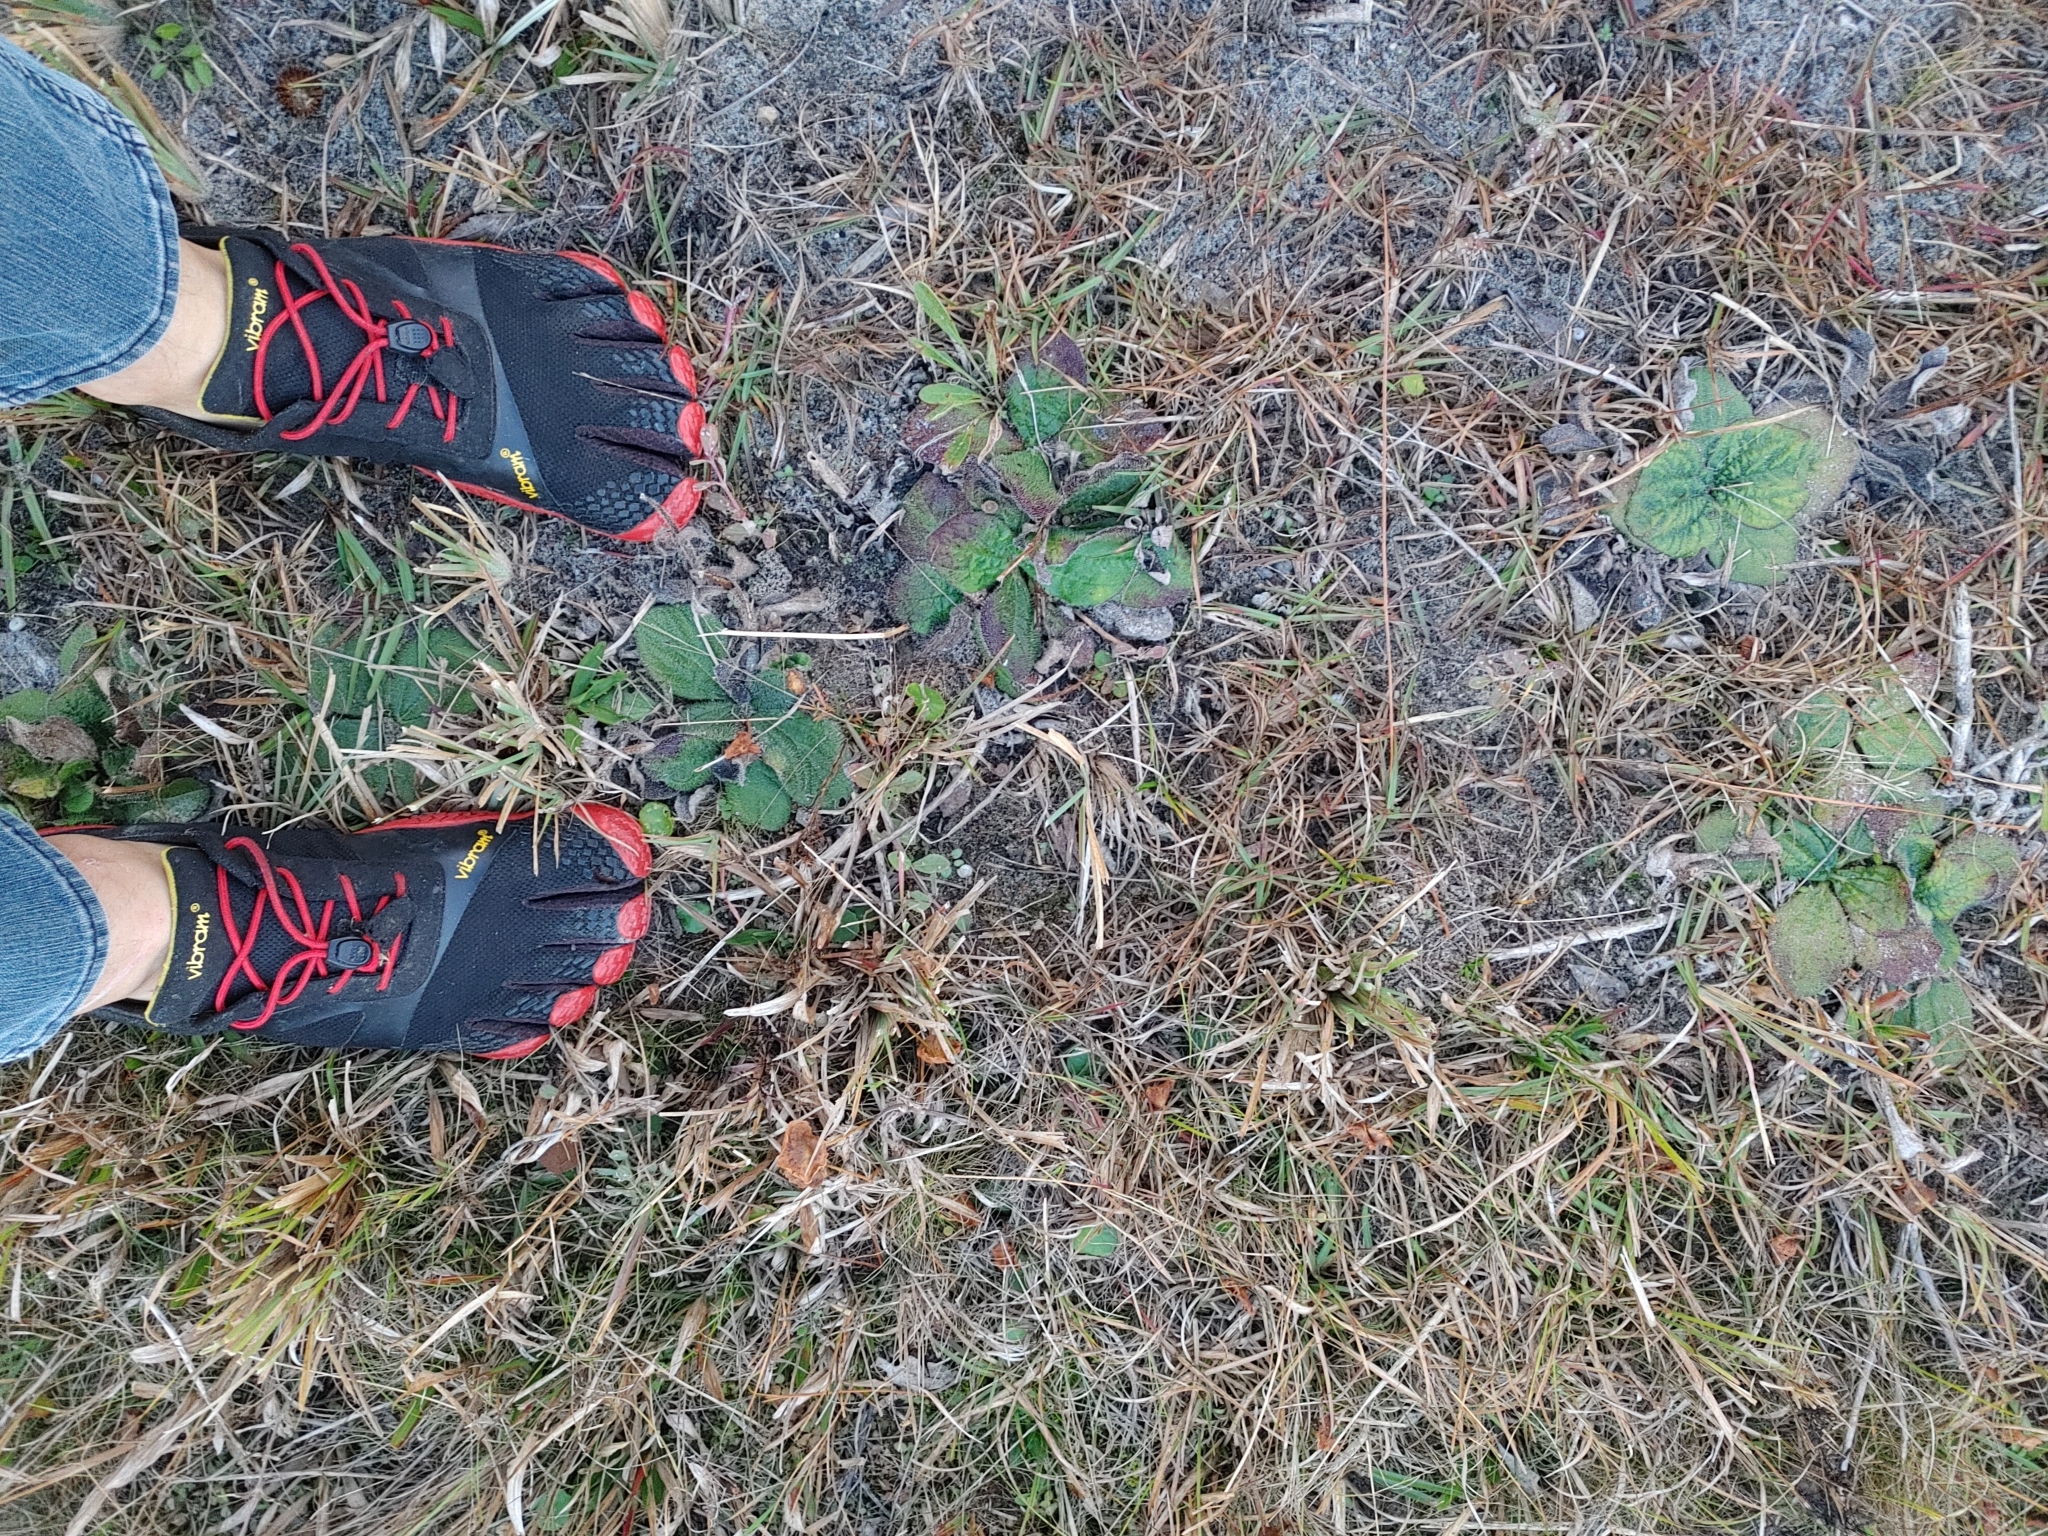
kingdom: Plantae
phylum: Tracheophyta
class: Magnoliopsida
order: Asterales
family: Asteraceae
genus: Helianthus
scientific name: Helianthus radula
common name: Pineland sunflower
